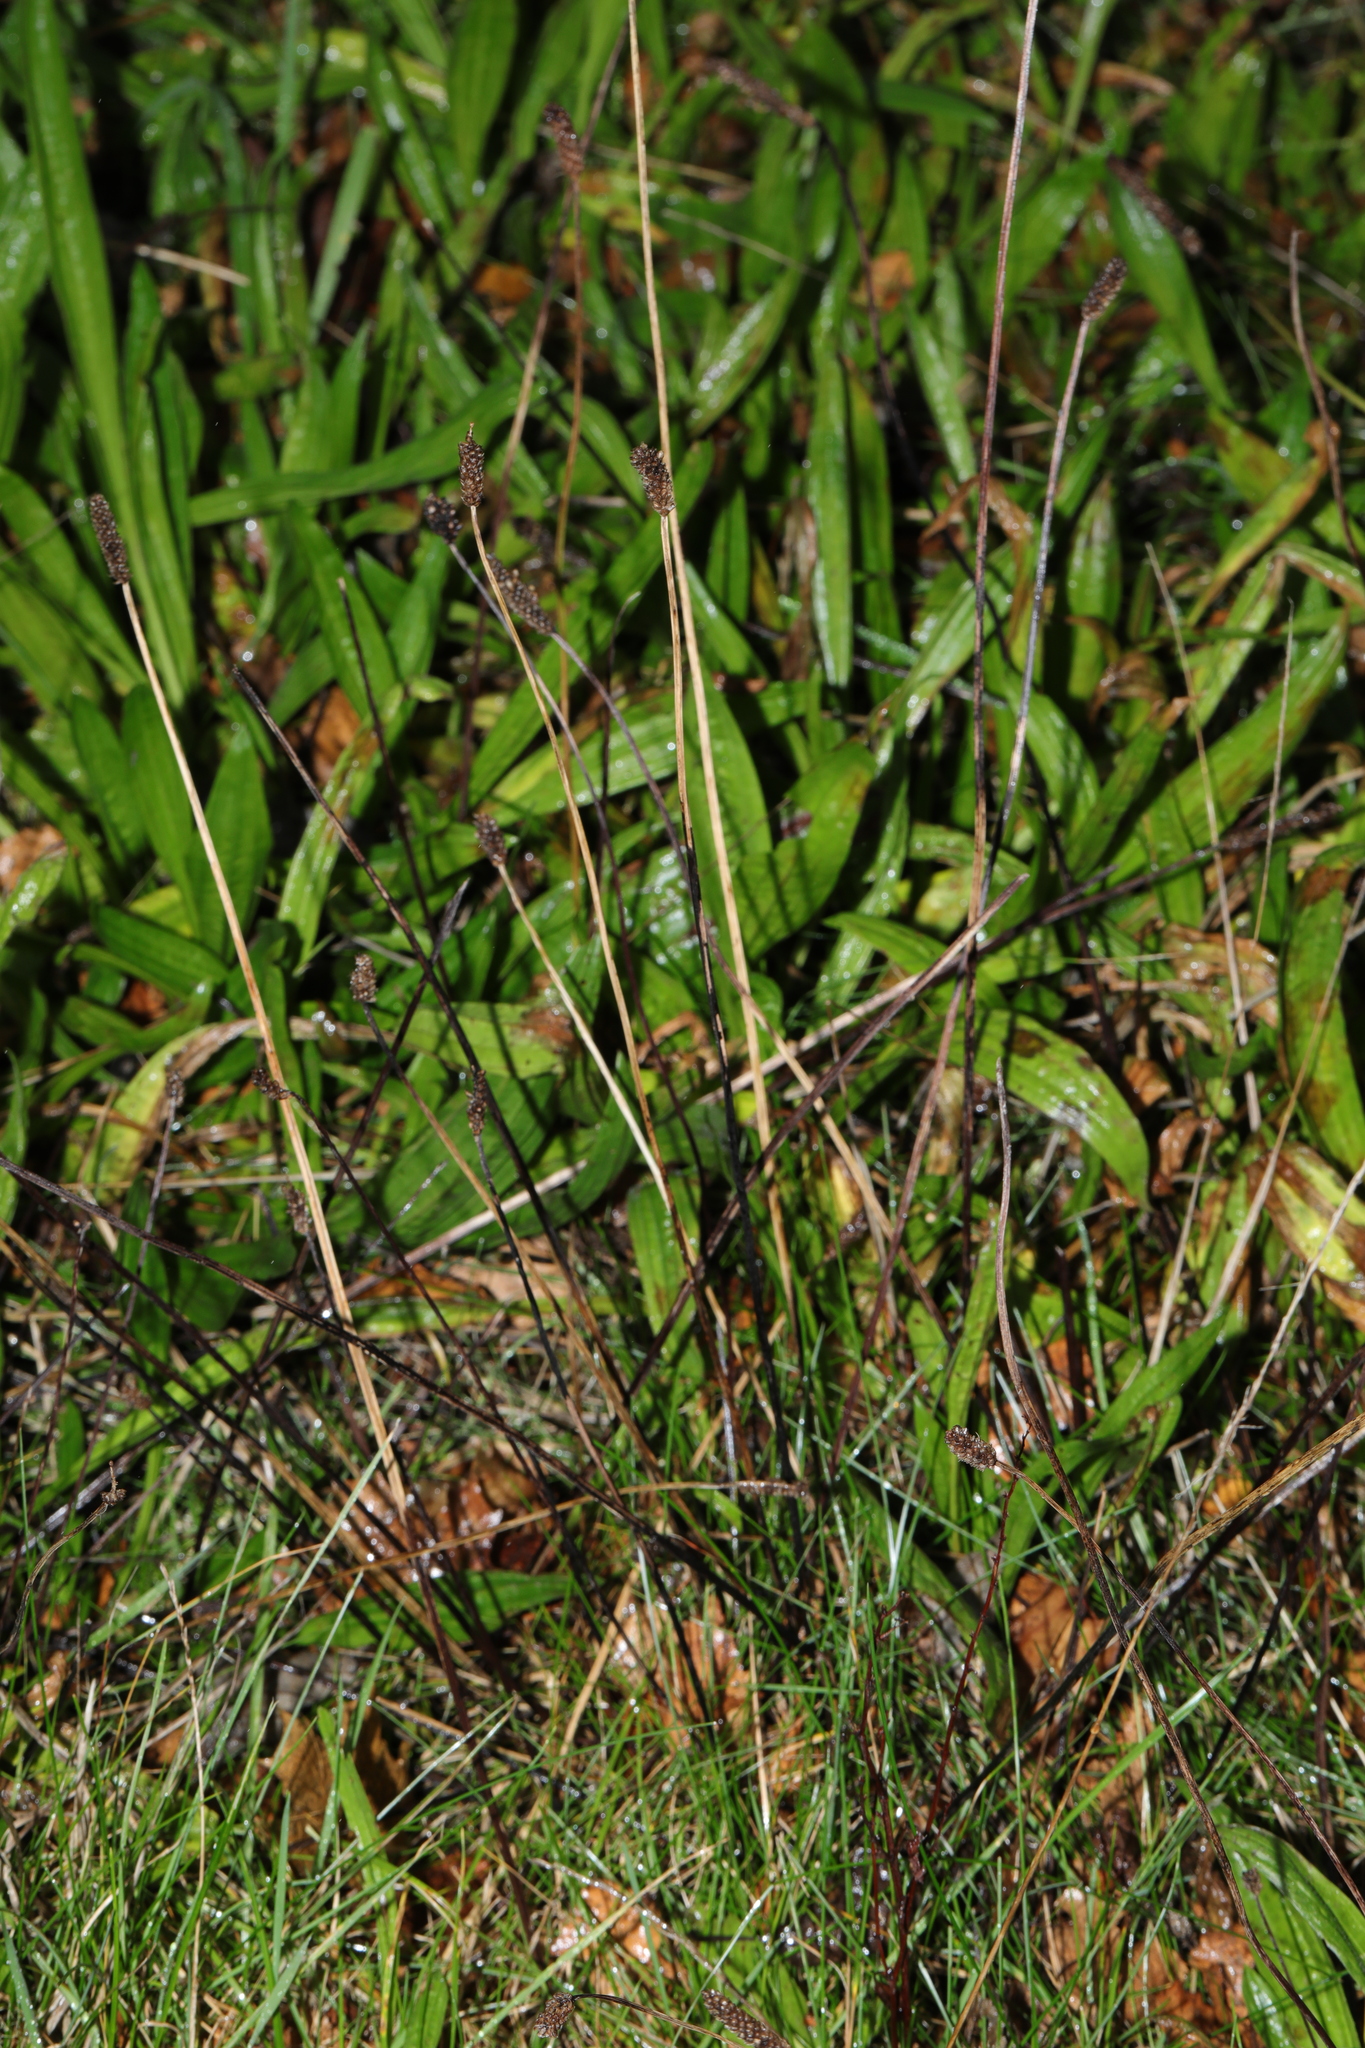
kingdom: Plantae
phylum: Tracheophyta
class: Magnoliopsida
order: Lamiales
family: Plantaginaceae
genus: Plantago
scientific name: Plantago lanceolata
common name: Ribwort plantain
